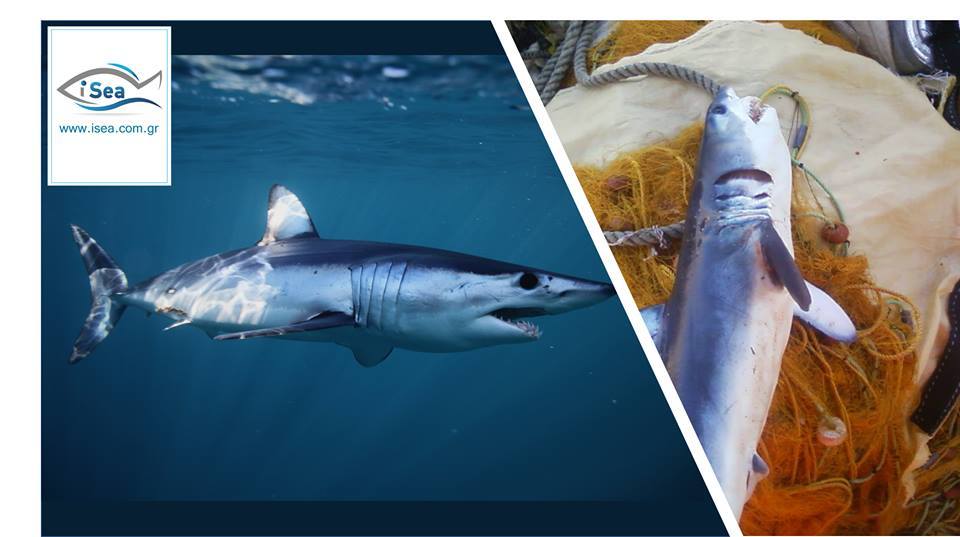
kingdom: Animalia
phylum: Chordata
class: Elasmobranchii
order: Lamniformes
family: Lamnidae
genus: Isurus
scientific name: Isurus oxyrinchus
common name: Shortfin mako
